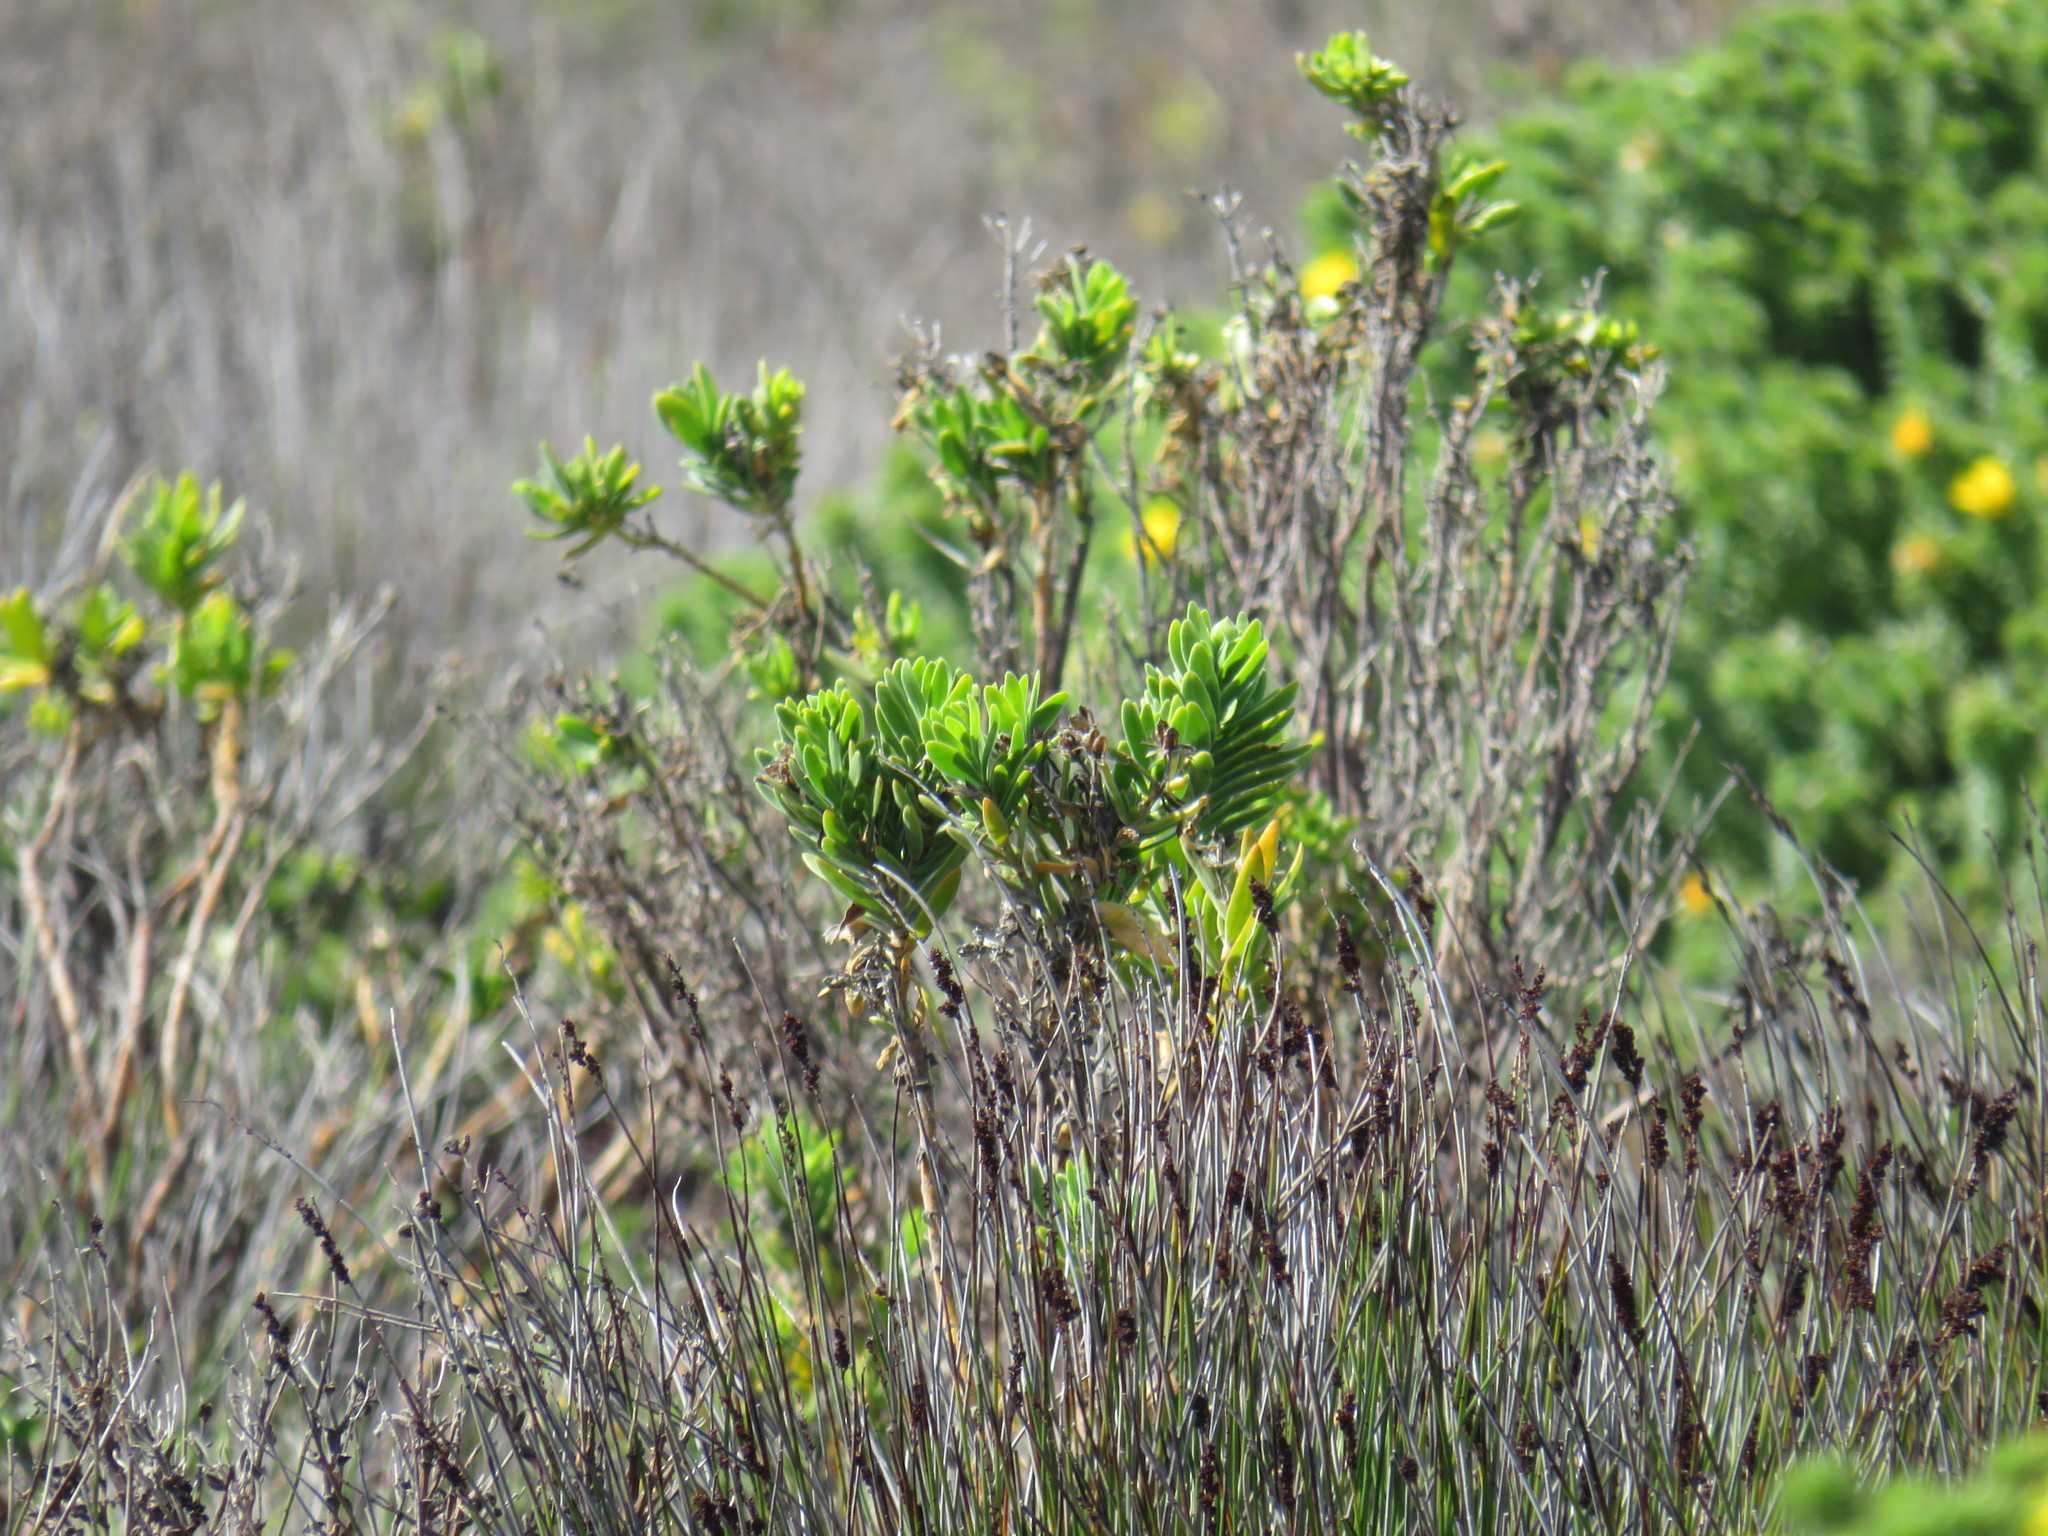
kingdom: Plantae
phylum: Tracheophyta
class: Magnoliopsida
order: Gentianales
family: Gentianaceae
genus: Orphium
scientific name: Orphium frutescens
